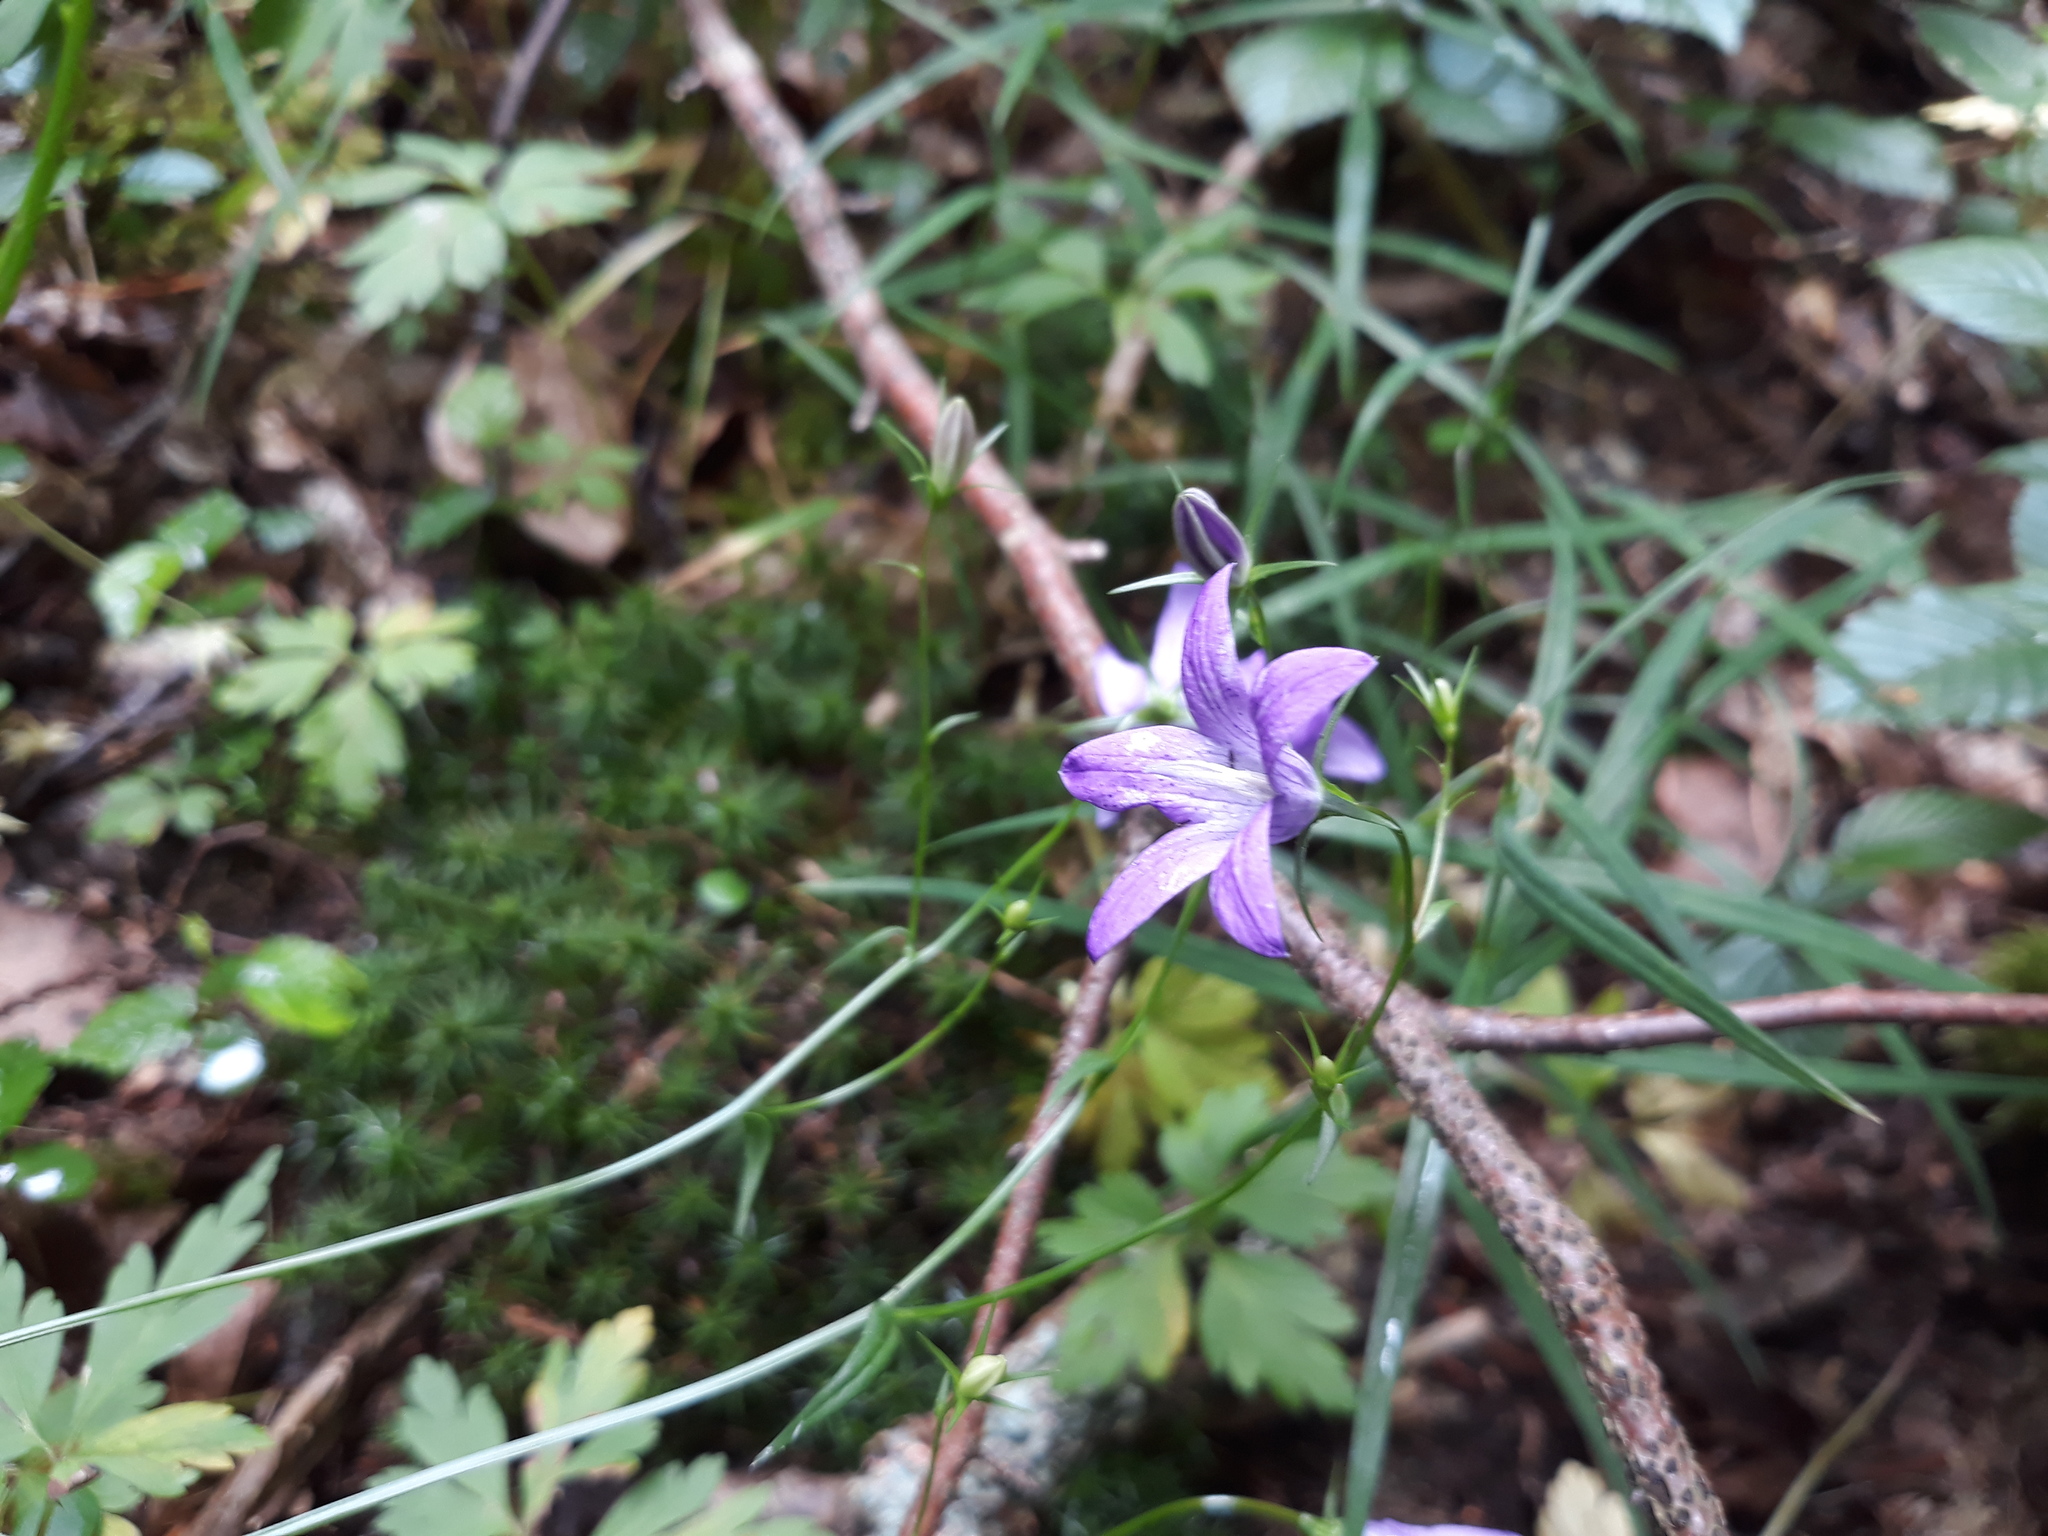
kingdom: Plantae
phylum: Tracheophyta
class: Magnoliopsida
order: Asterales
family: Campanulaceae
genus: Campanula
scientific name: Campanula rotundifolia
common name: Harebell
